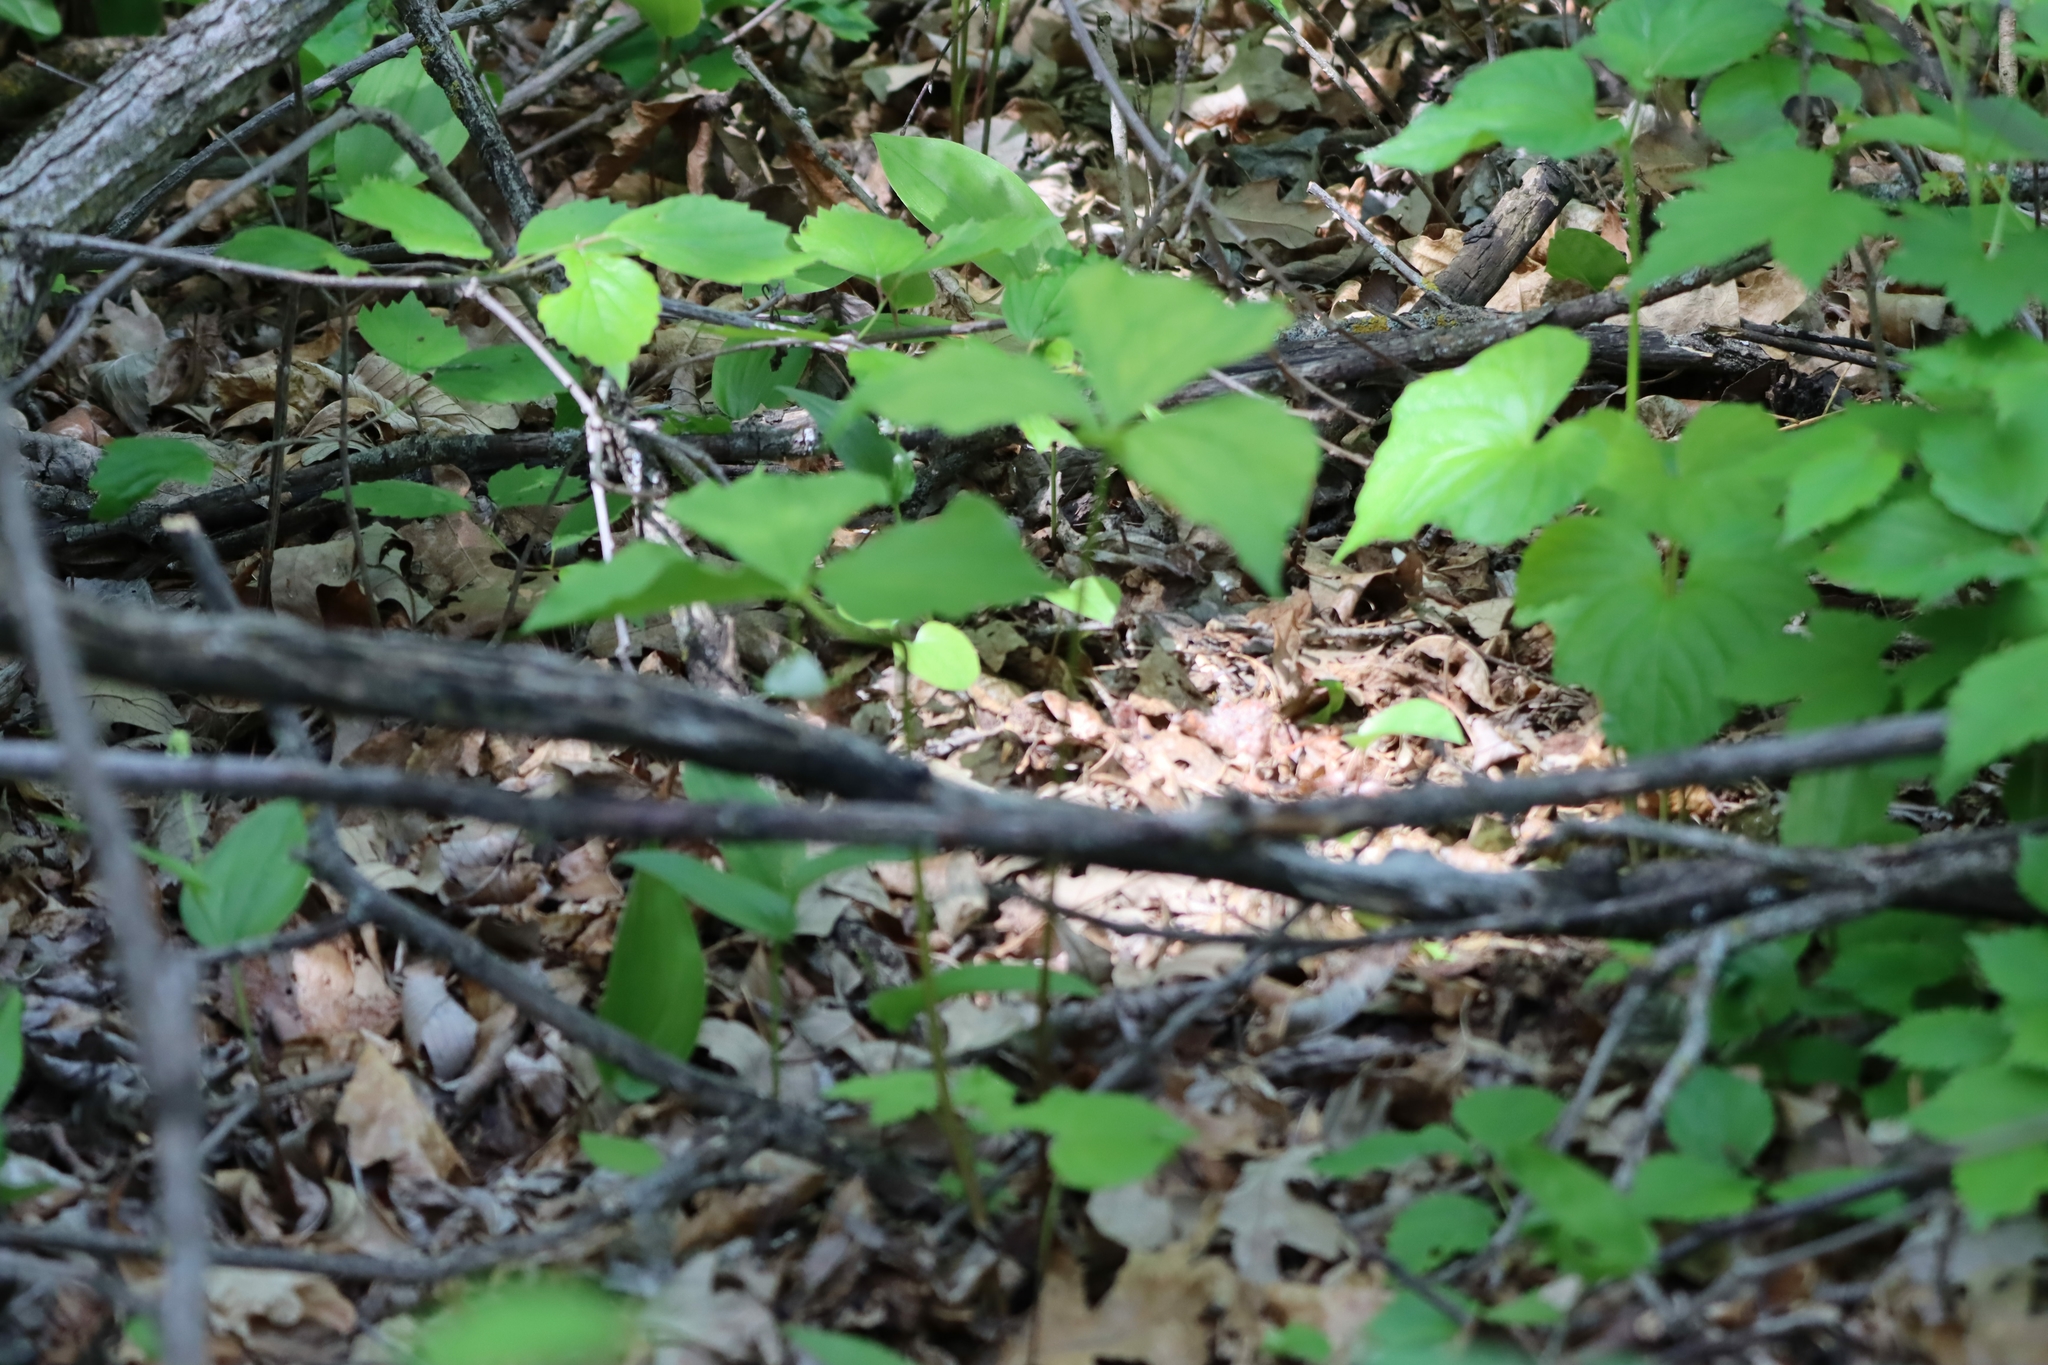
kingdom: Plantae
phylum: Tracheophyta
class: Liliopsida
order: Liliales
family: Melanthiaceae
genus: Trillium
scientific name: Trillium cernuum
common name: Nodding trillium
